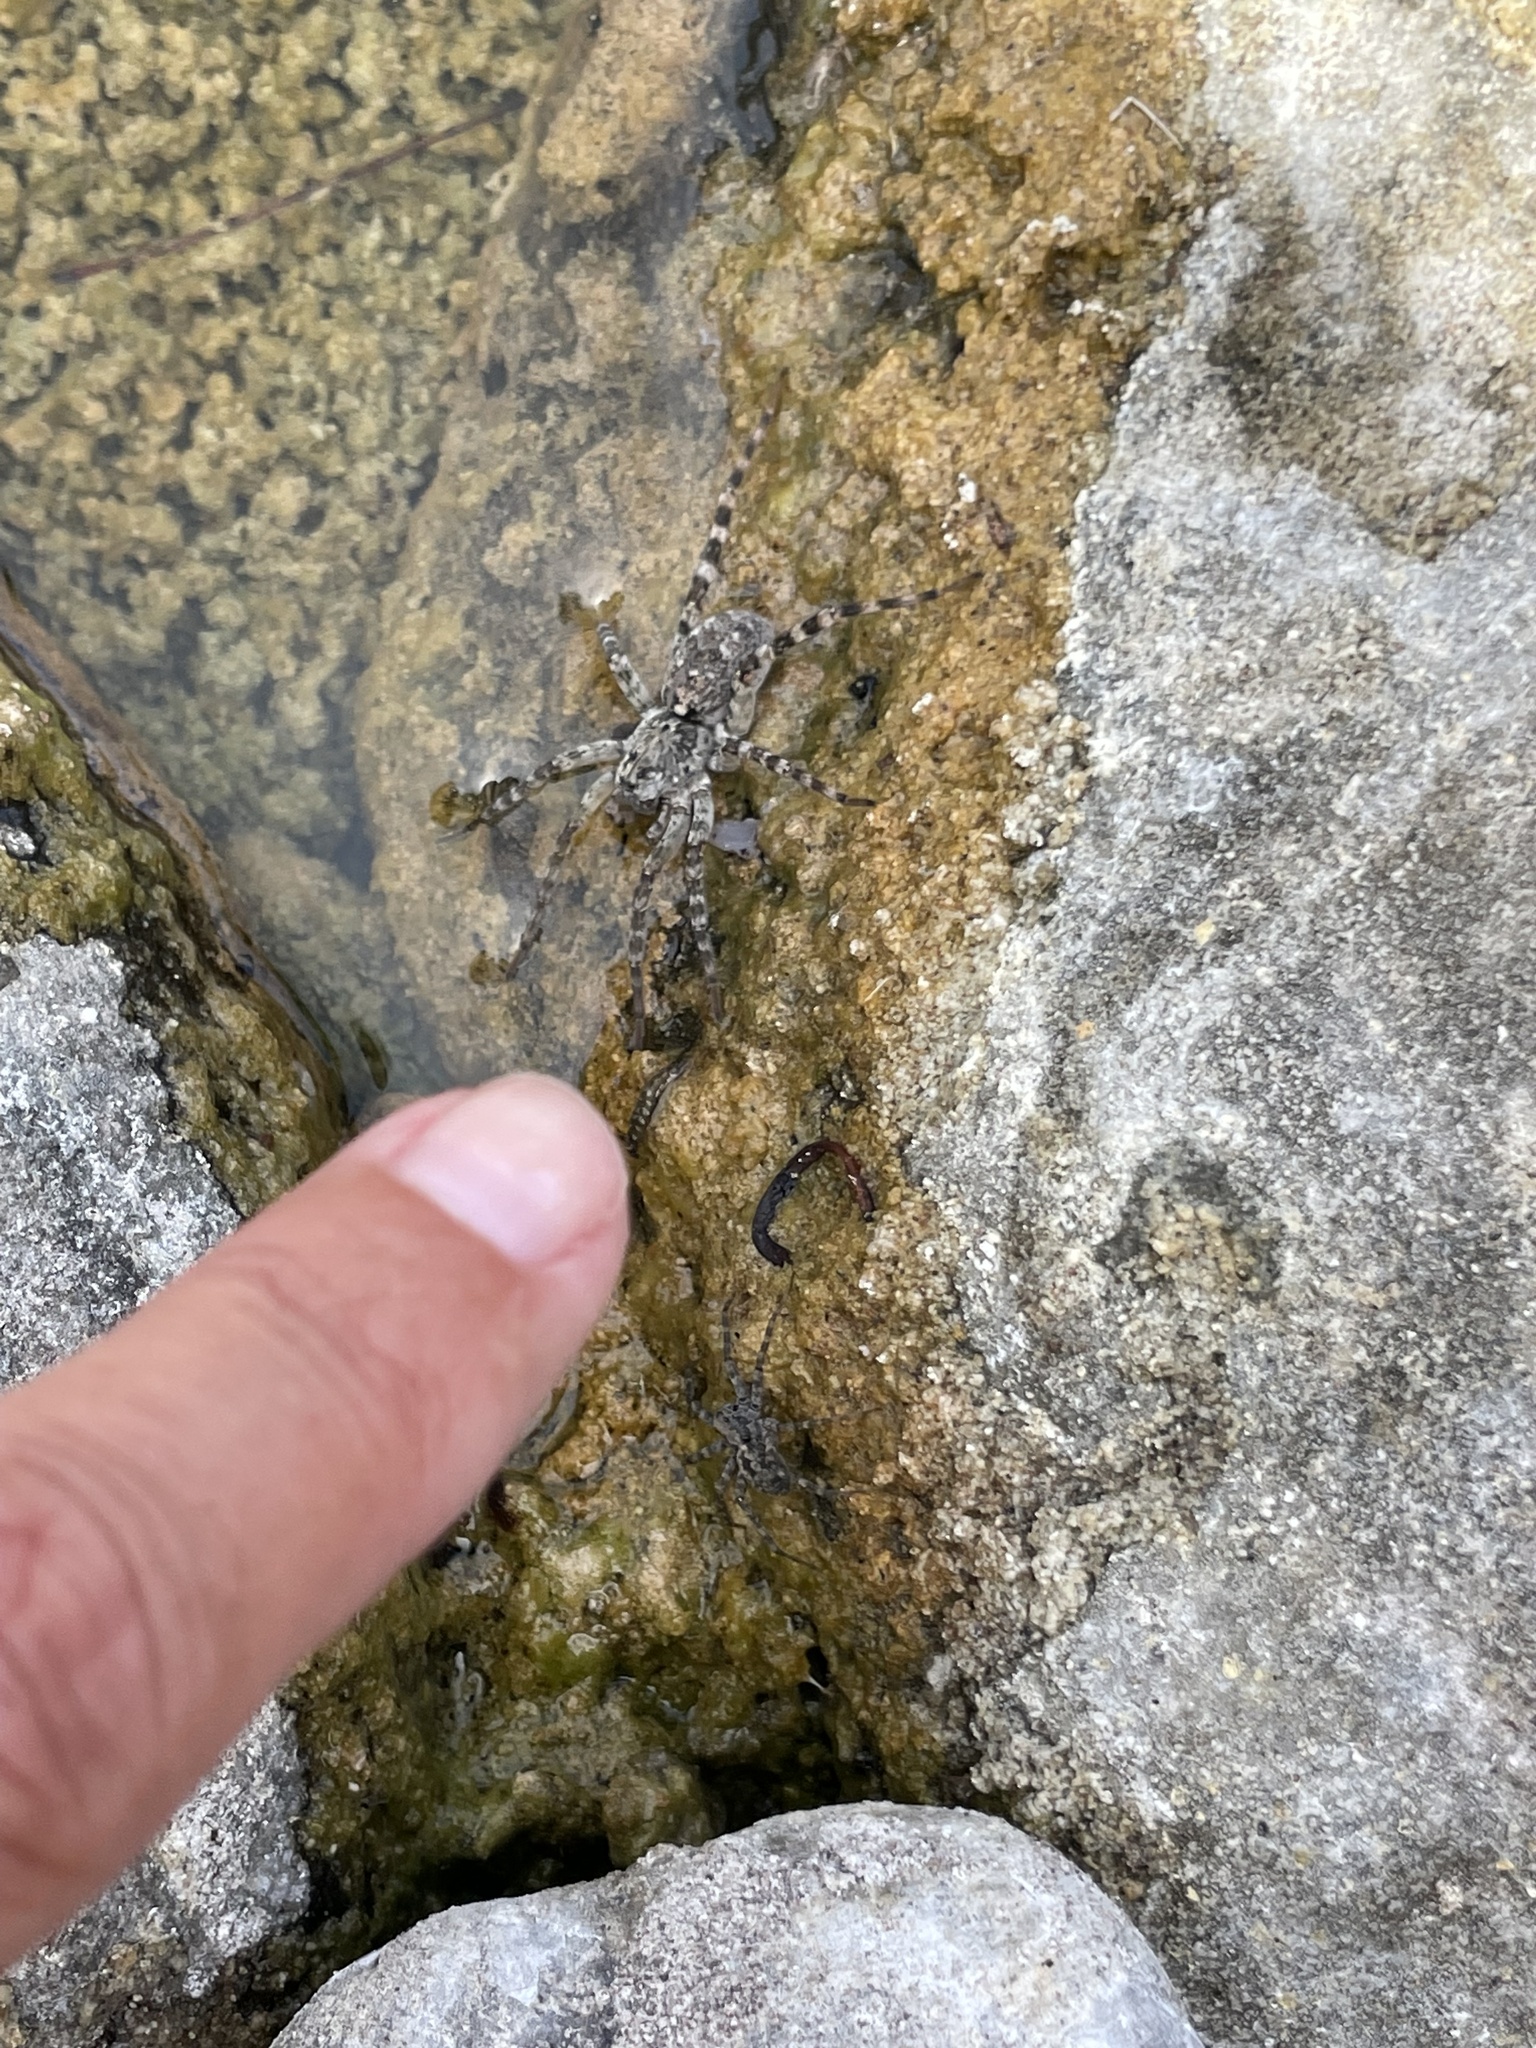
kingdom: Animalia
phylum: Arthropoda
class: Arachnida
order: Araneae
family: Lycosidae
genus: Arctosa
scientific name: Arctosa
